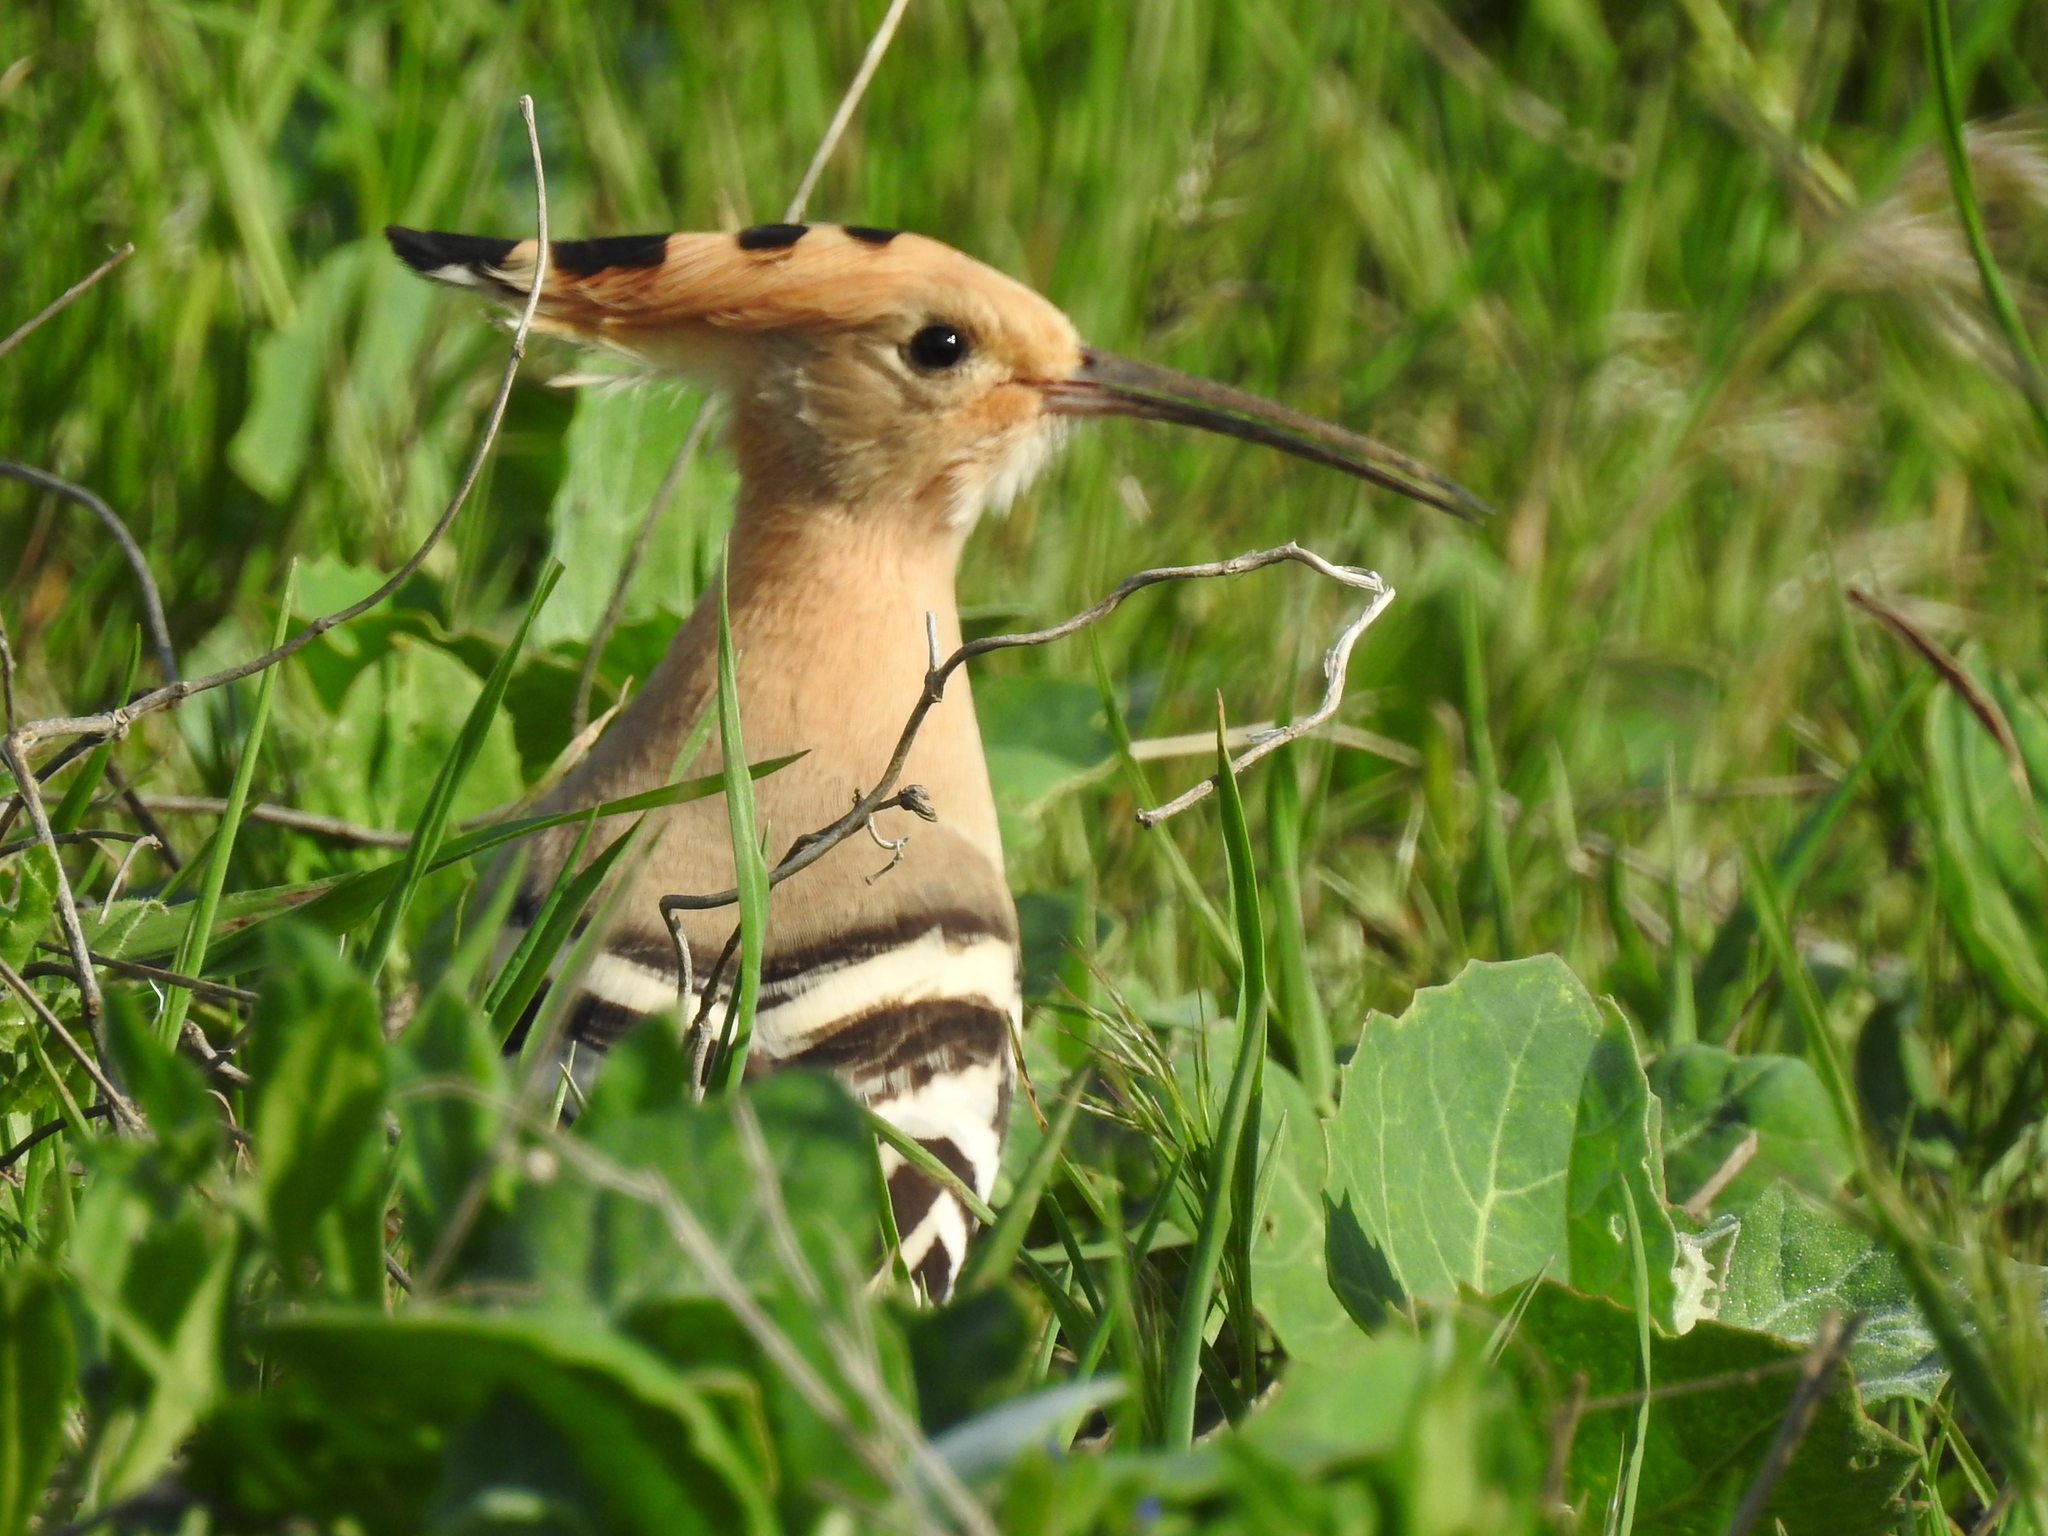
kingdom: Animalia
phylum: Chordata
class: Aves
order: Bucerotiformes
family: Upupidae
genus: Upupa
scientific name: Upupa epops
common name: Eurasian hoopoe
